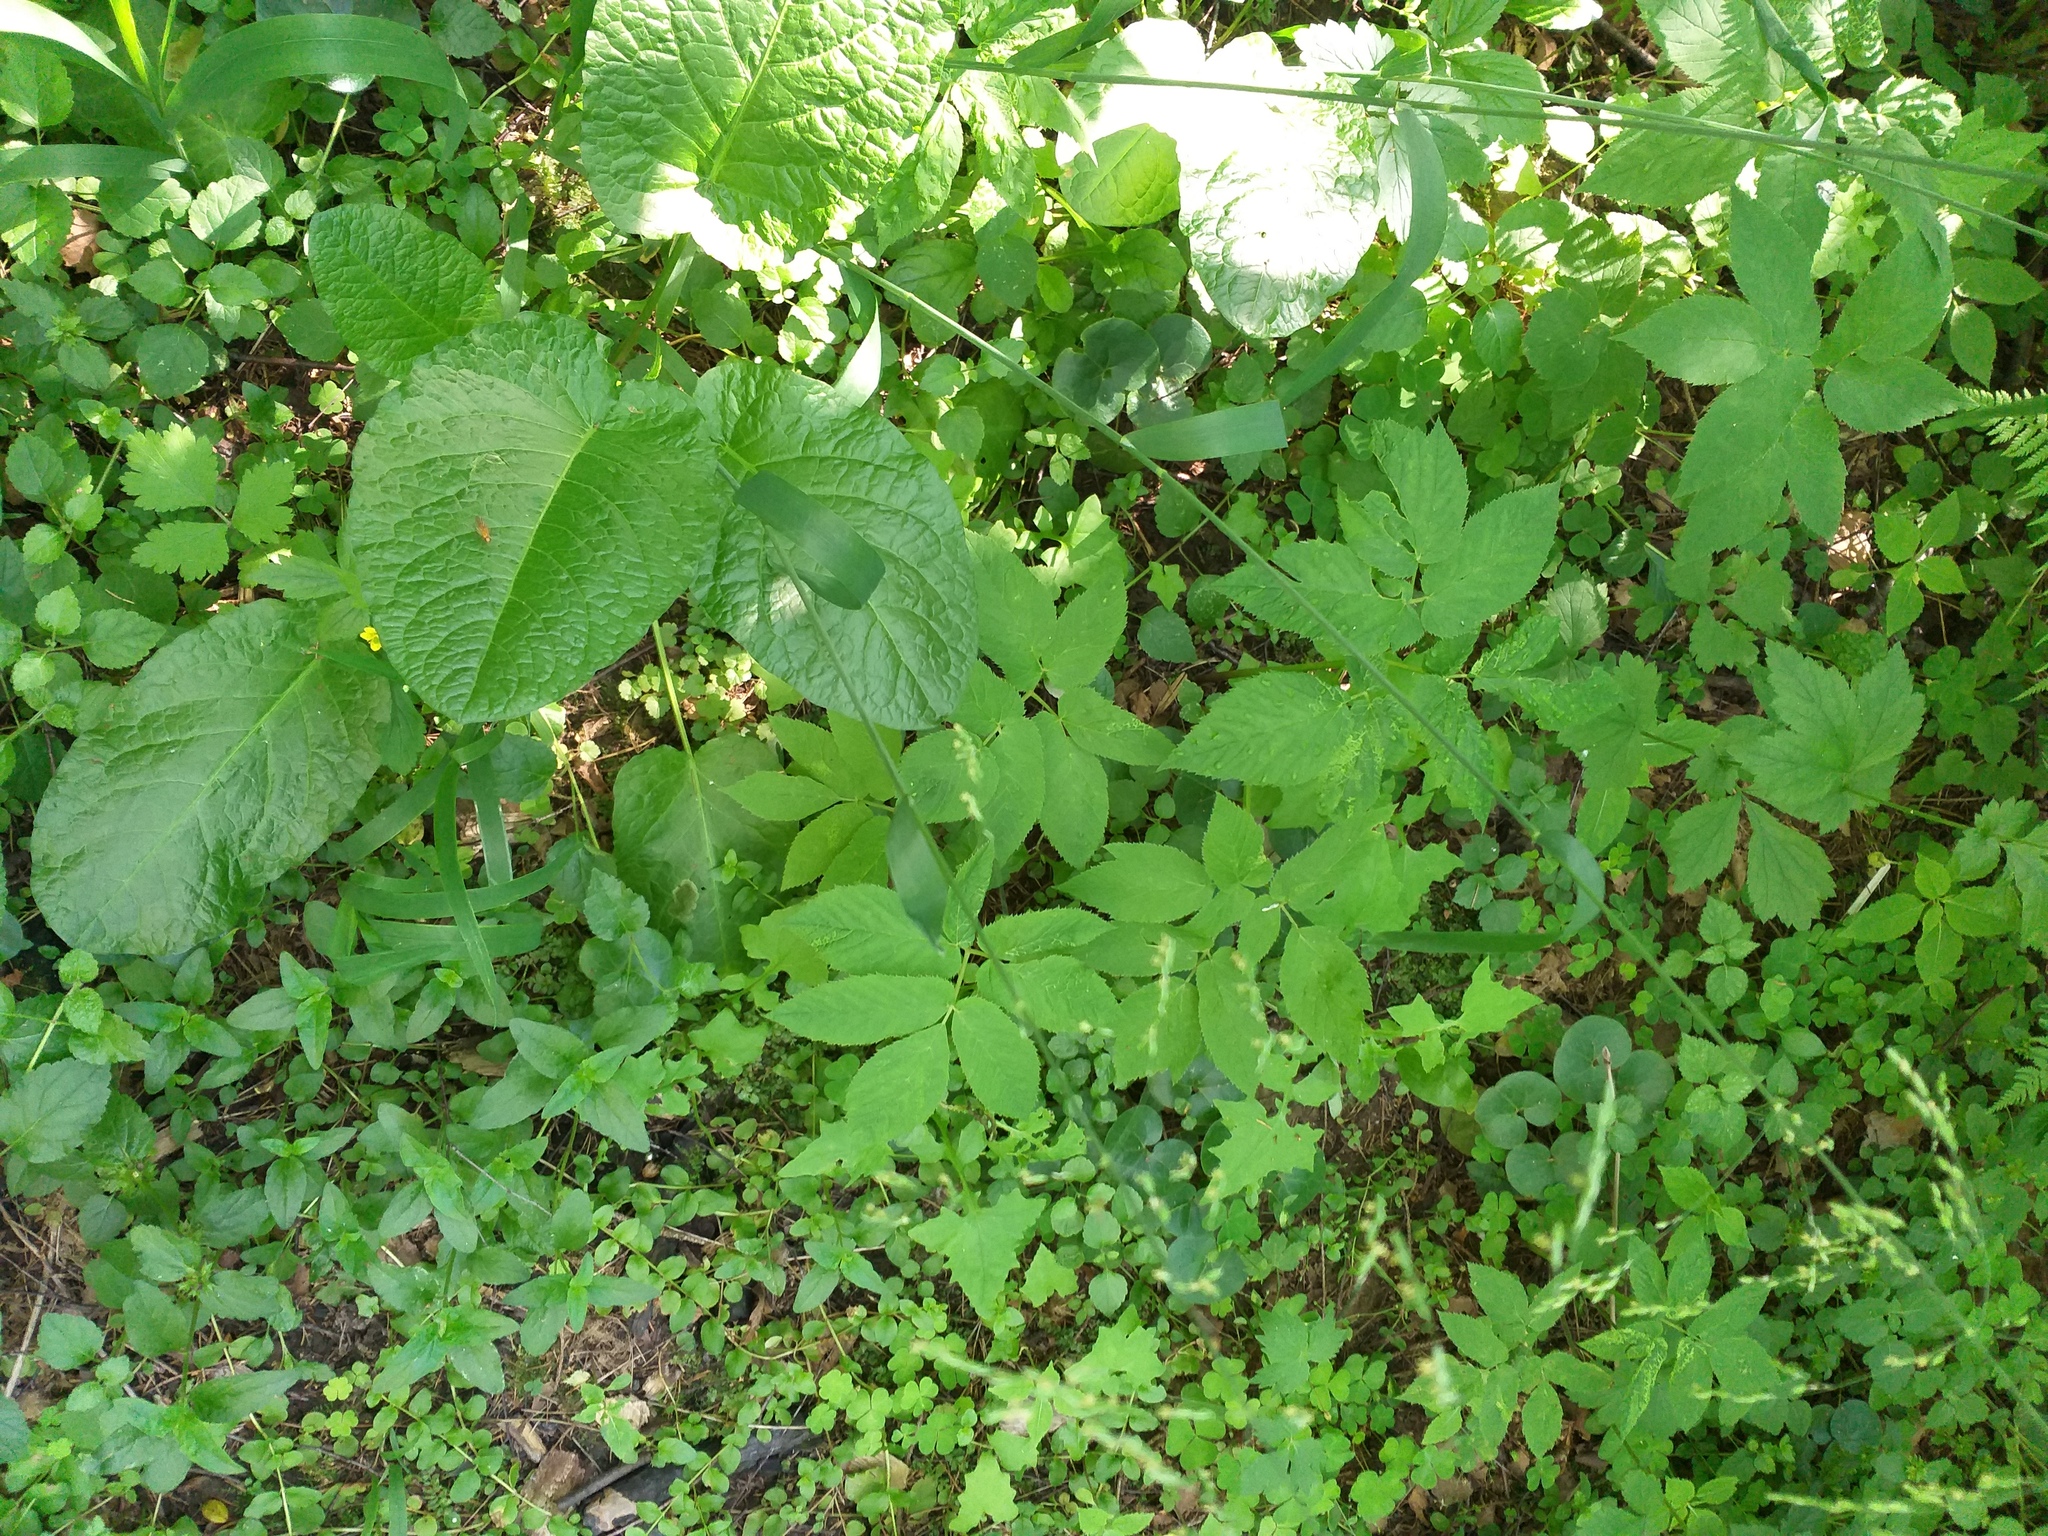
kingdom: Plantae
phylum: Tracheophyta
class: Liliopsida
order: Poales
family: Poaceae
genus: Milium
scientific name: Milium effusum
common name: Wood millet
